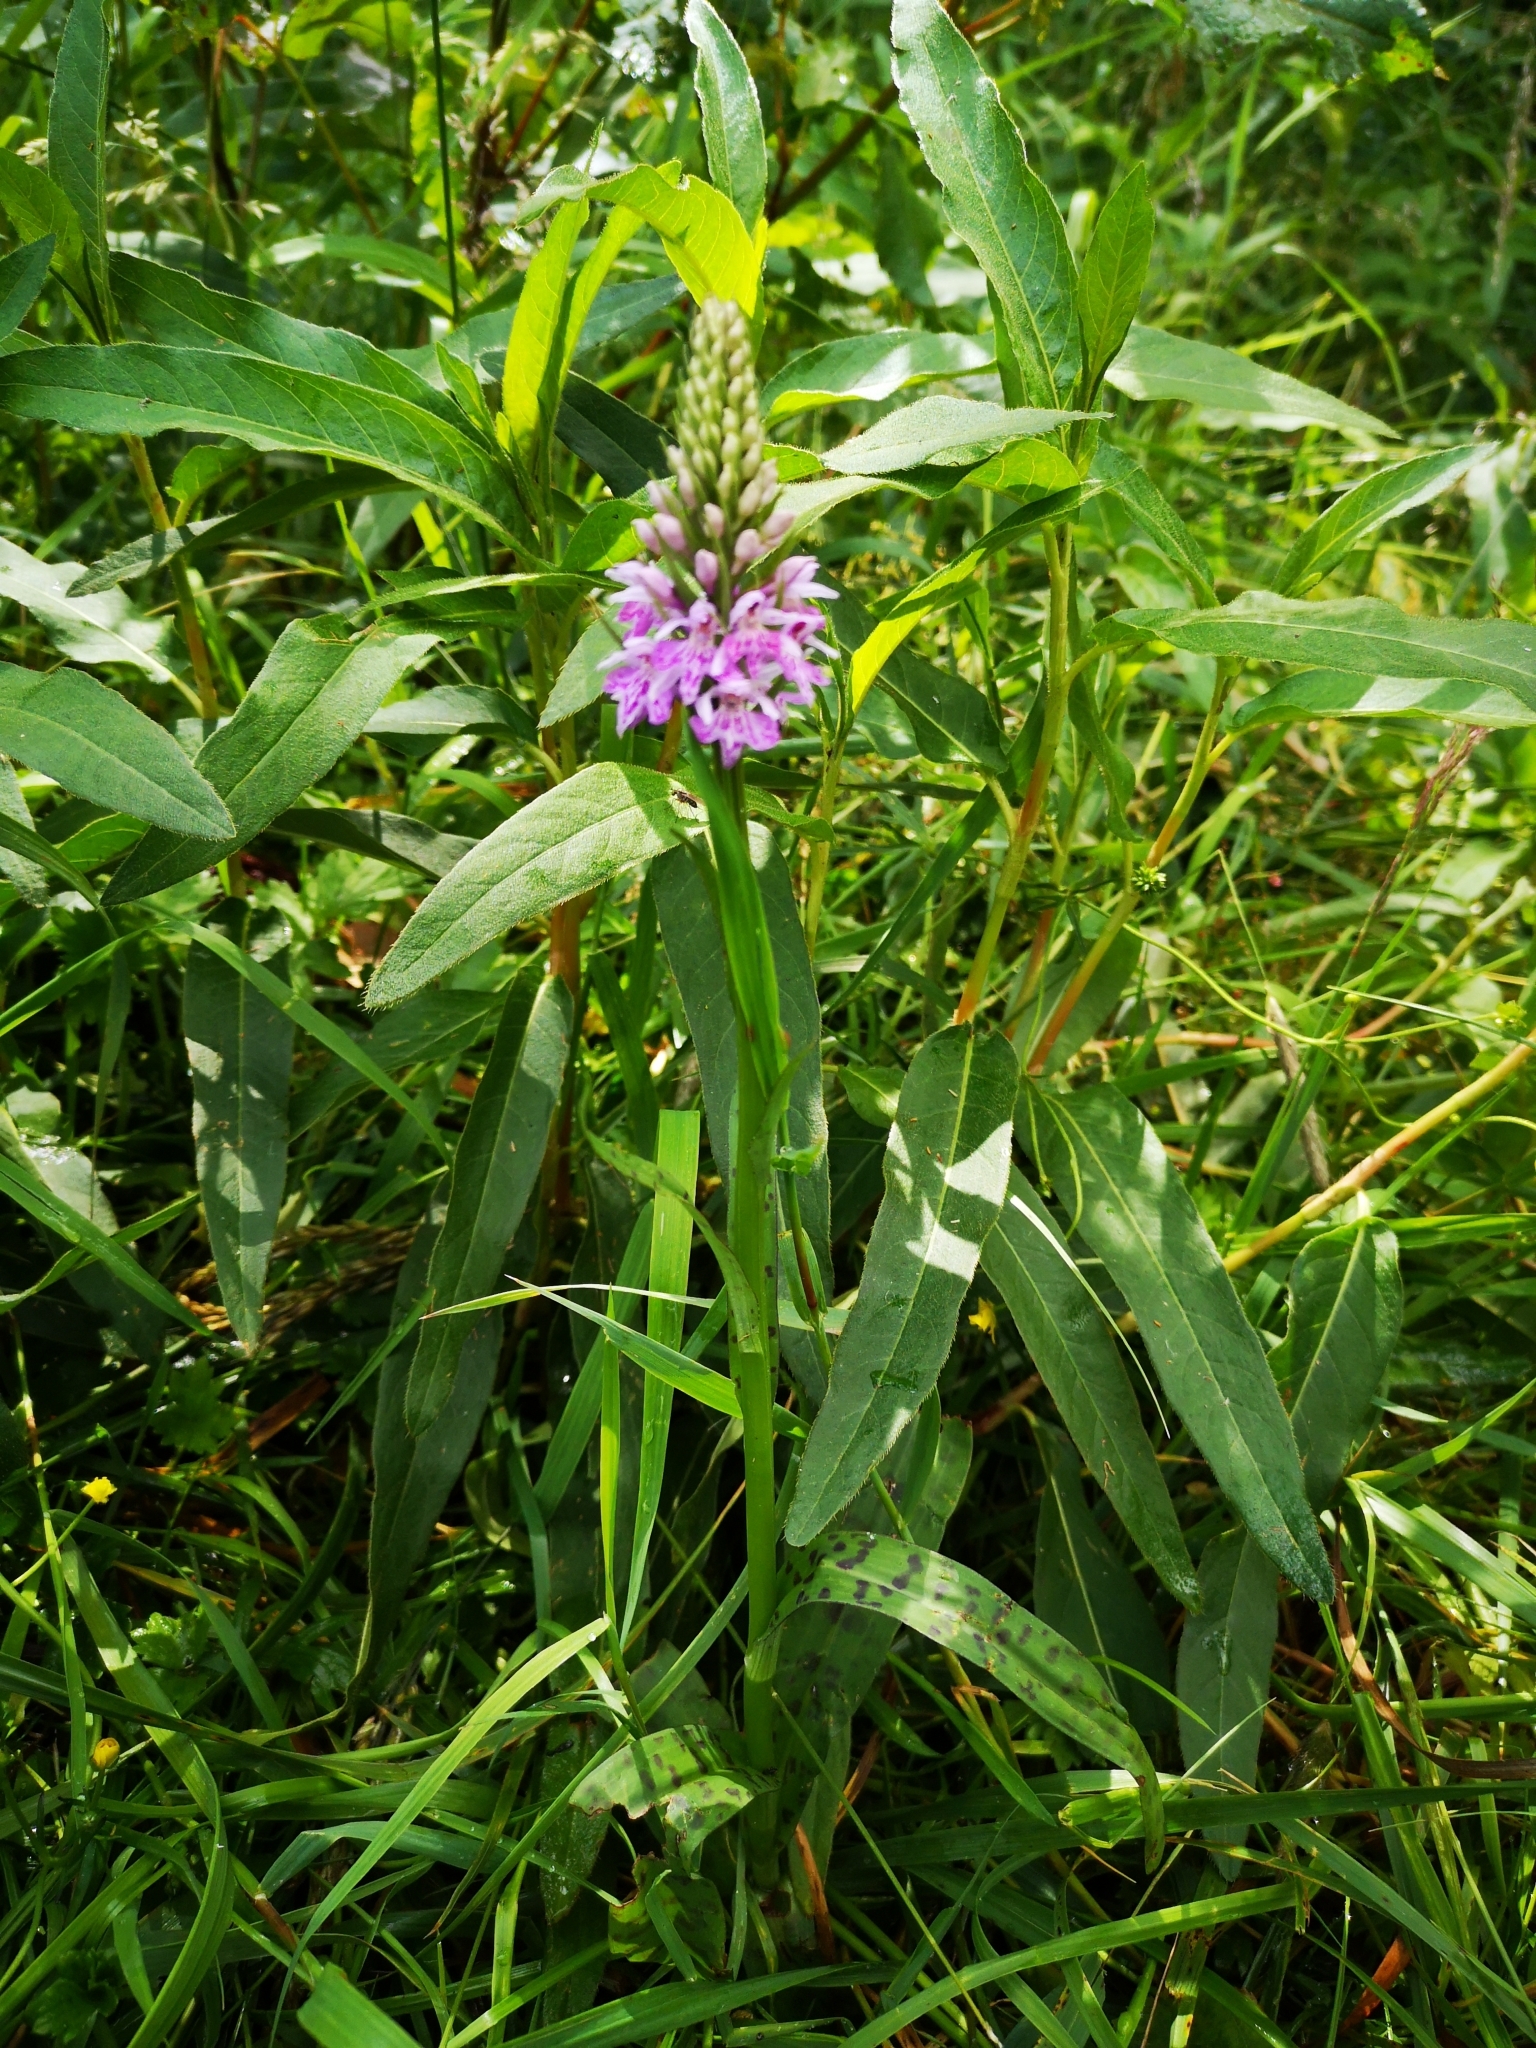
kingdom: Plantae
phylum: Tracheophyta
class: Liliopsida
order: Asparagales
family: Orchidaceae
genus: Dactylorhiza
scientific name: Dactylorhiza maculata
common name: Heath spotted-orchid
